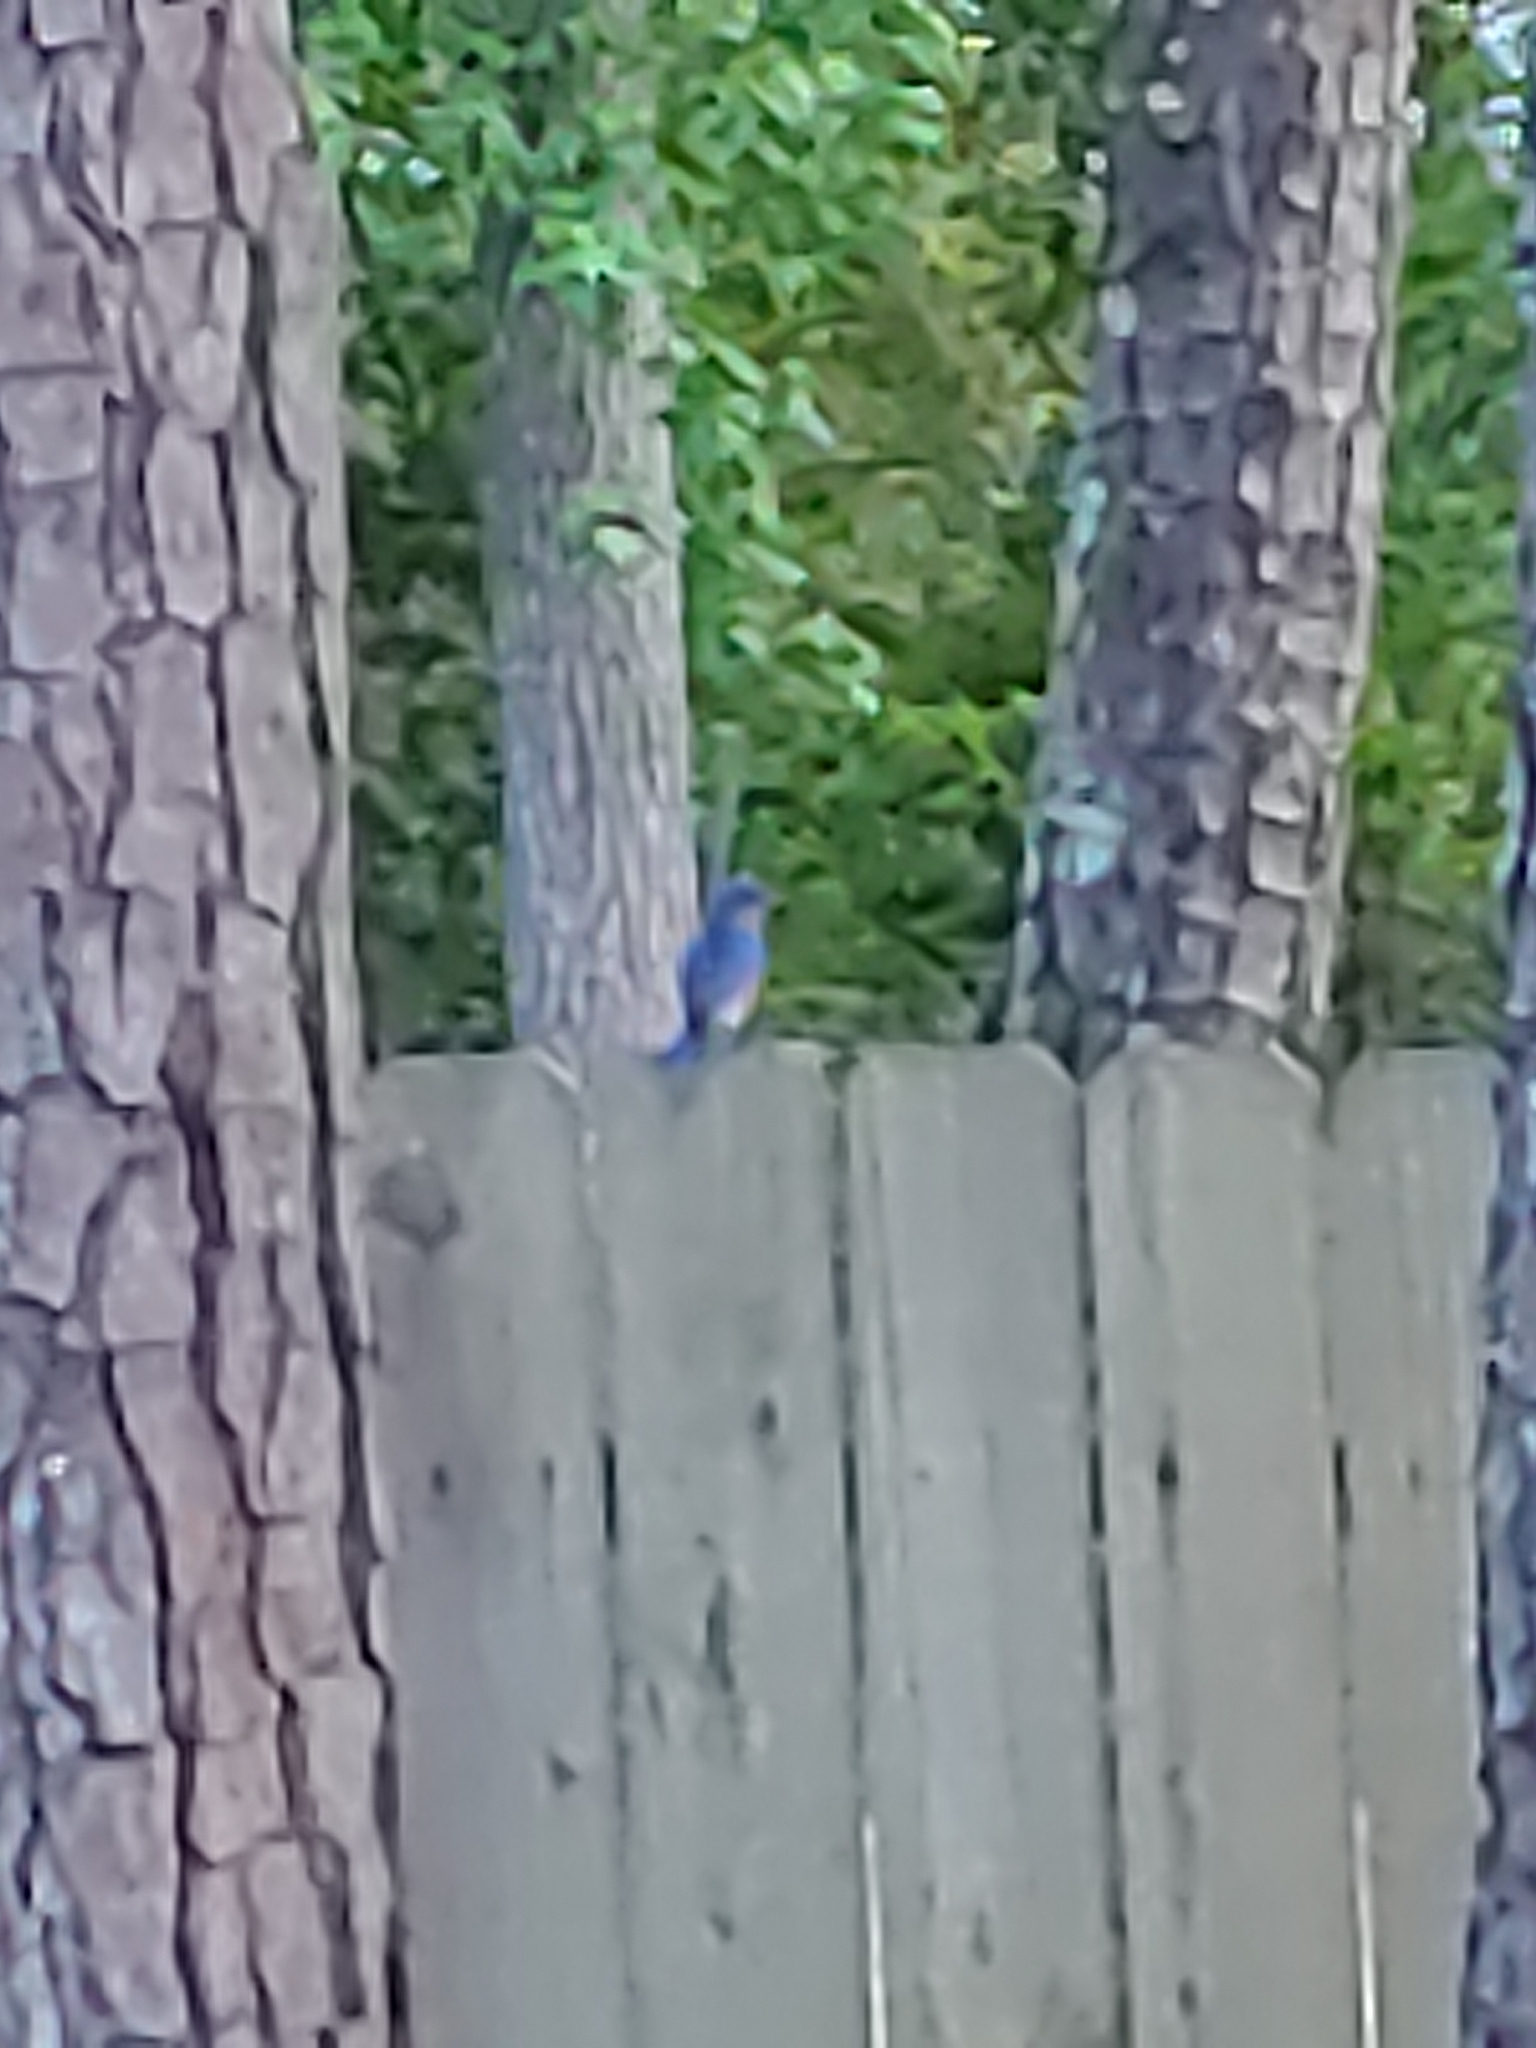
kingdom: Animalia
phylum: Chordata
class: Aves
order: Passeriformes
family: Turdidae
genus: Sialia
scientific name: Sialia sialis
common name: Eastern bluebird
